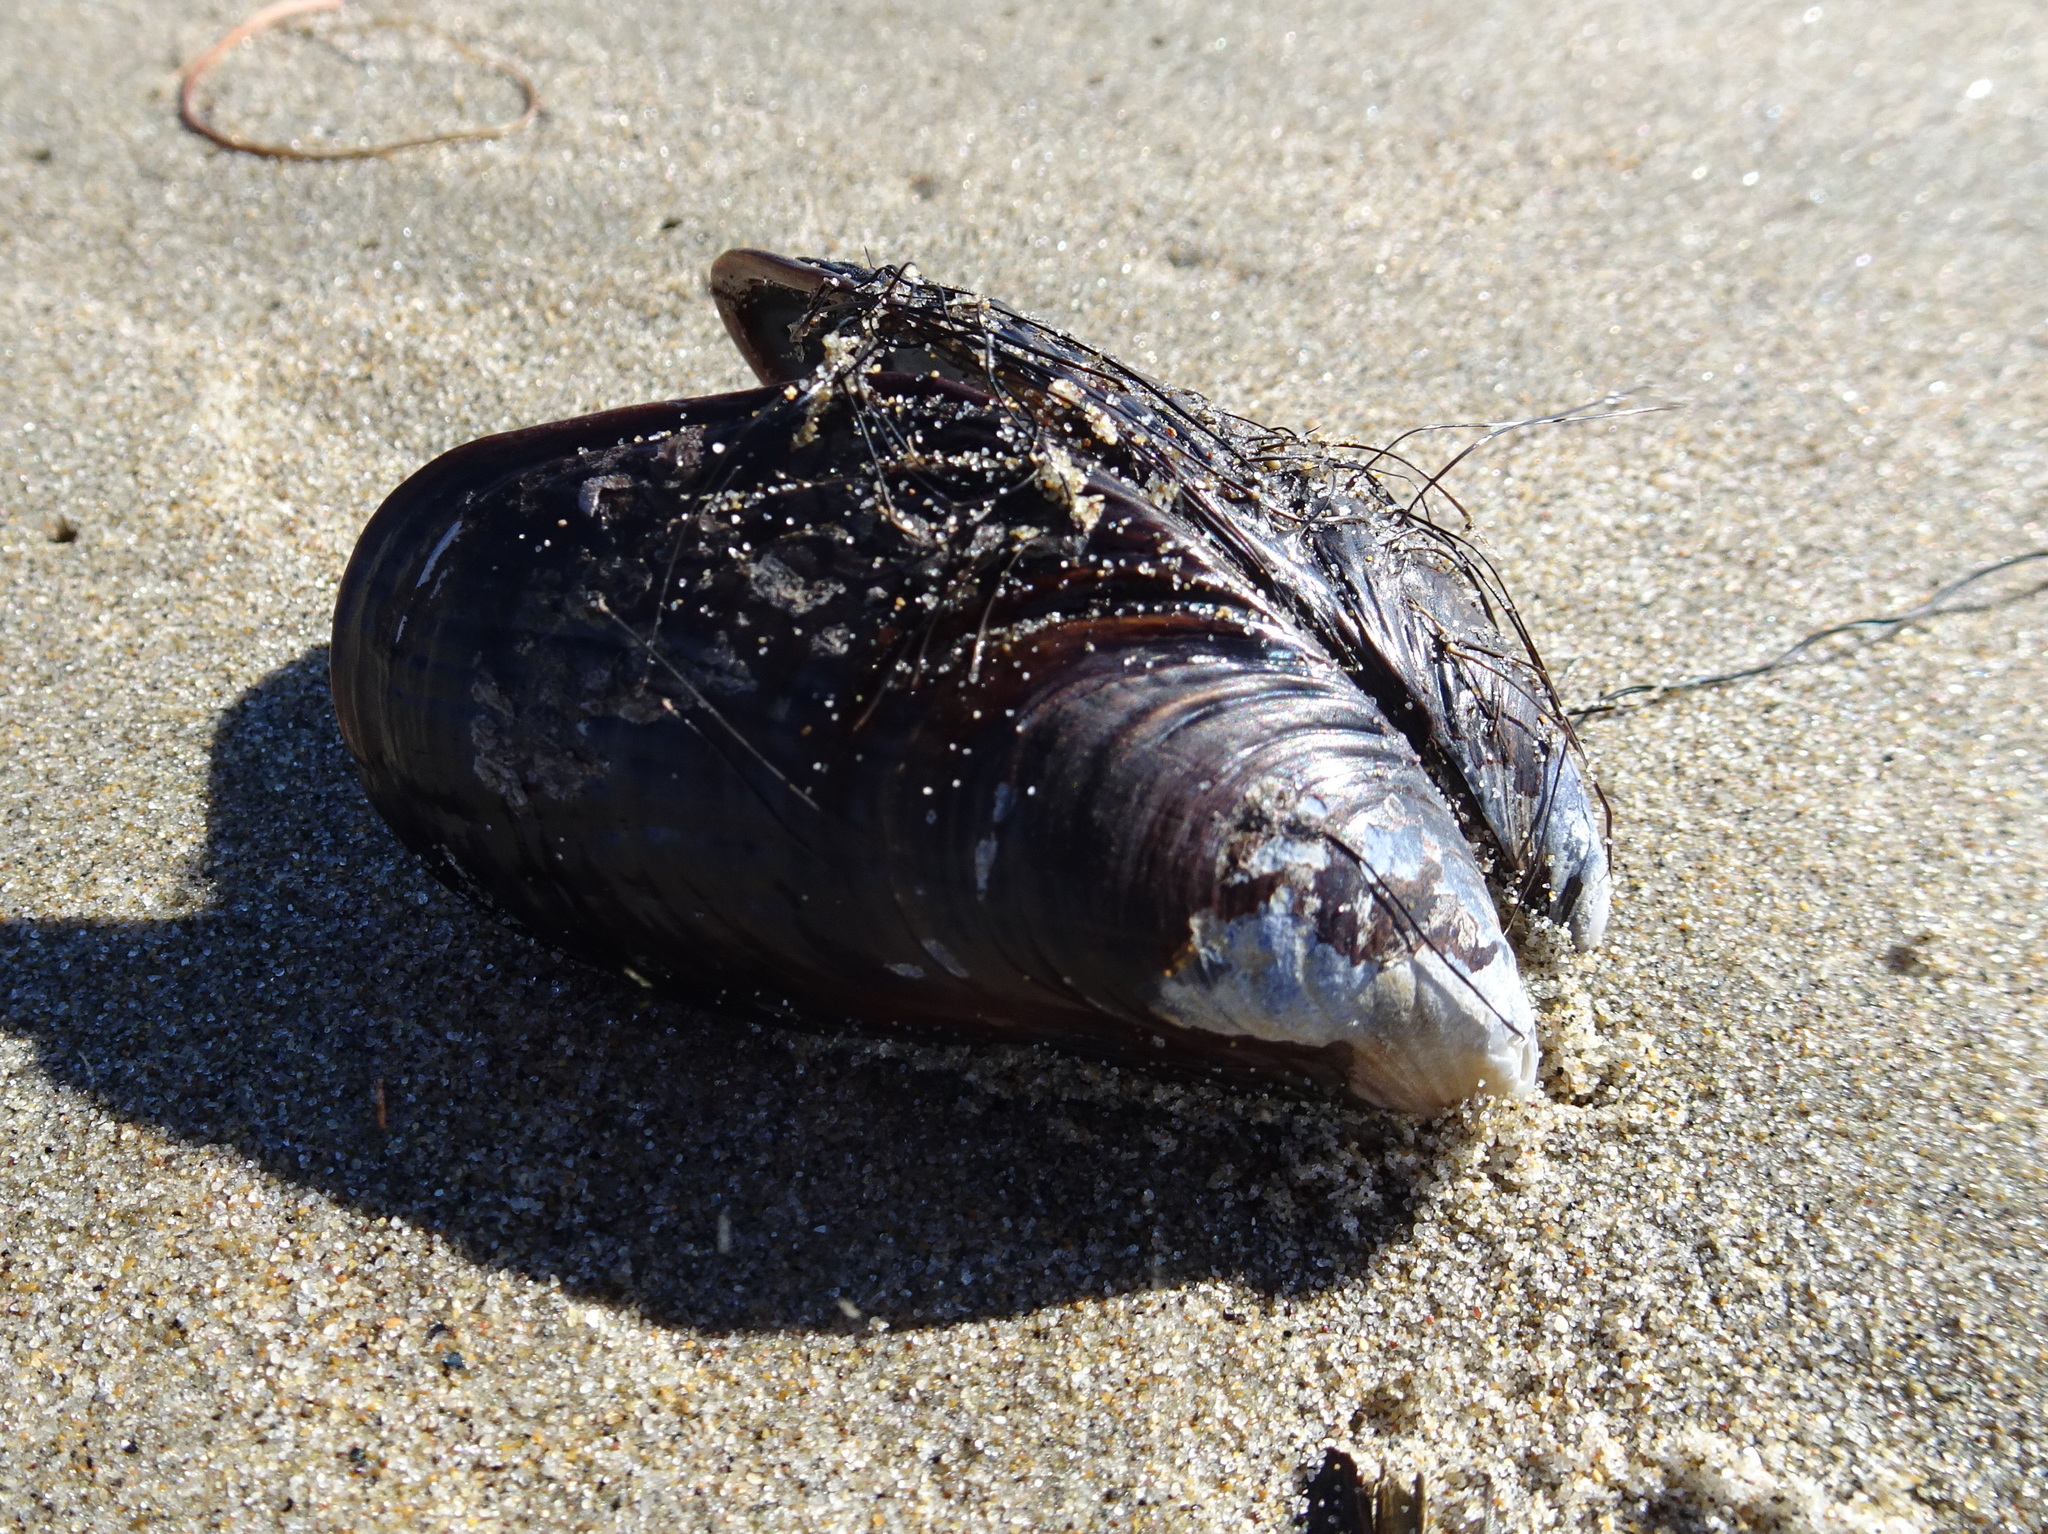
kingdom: Animalia
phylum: Mollusca
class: Bivalvia
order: Mytilida
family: Mytilidae
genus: Mytilus
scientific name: Mytilus californianus
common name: California mussel
